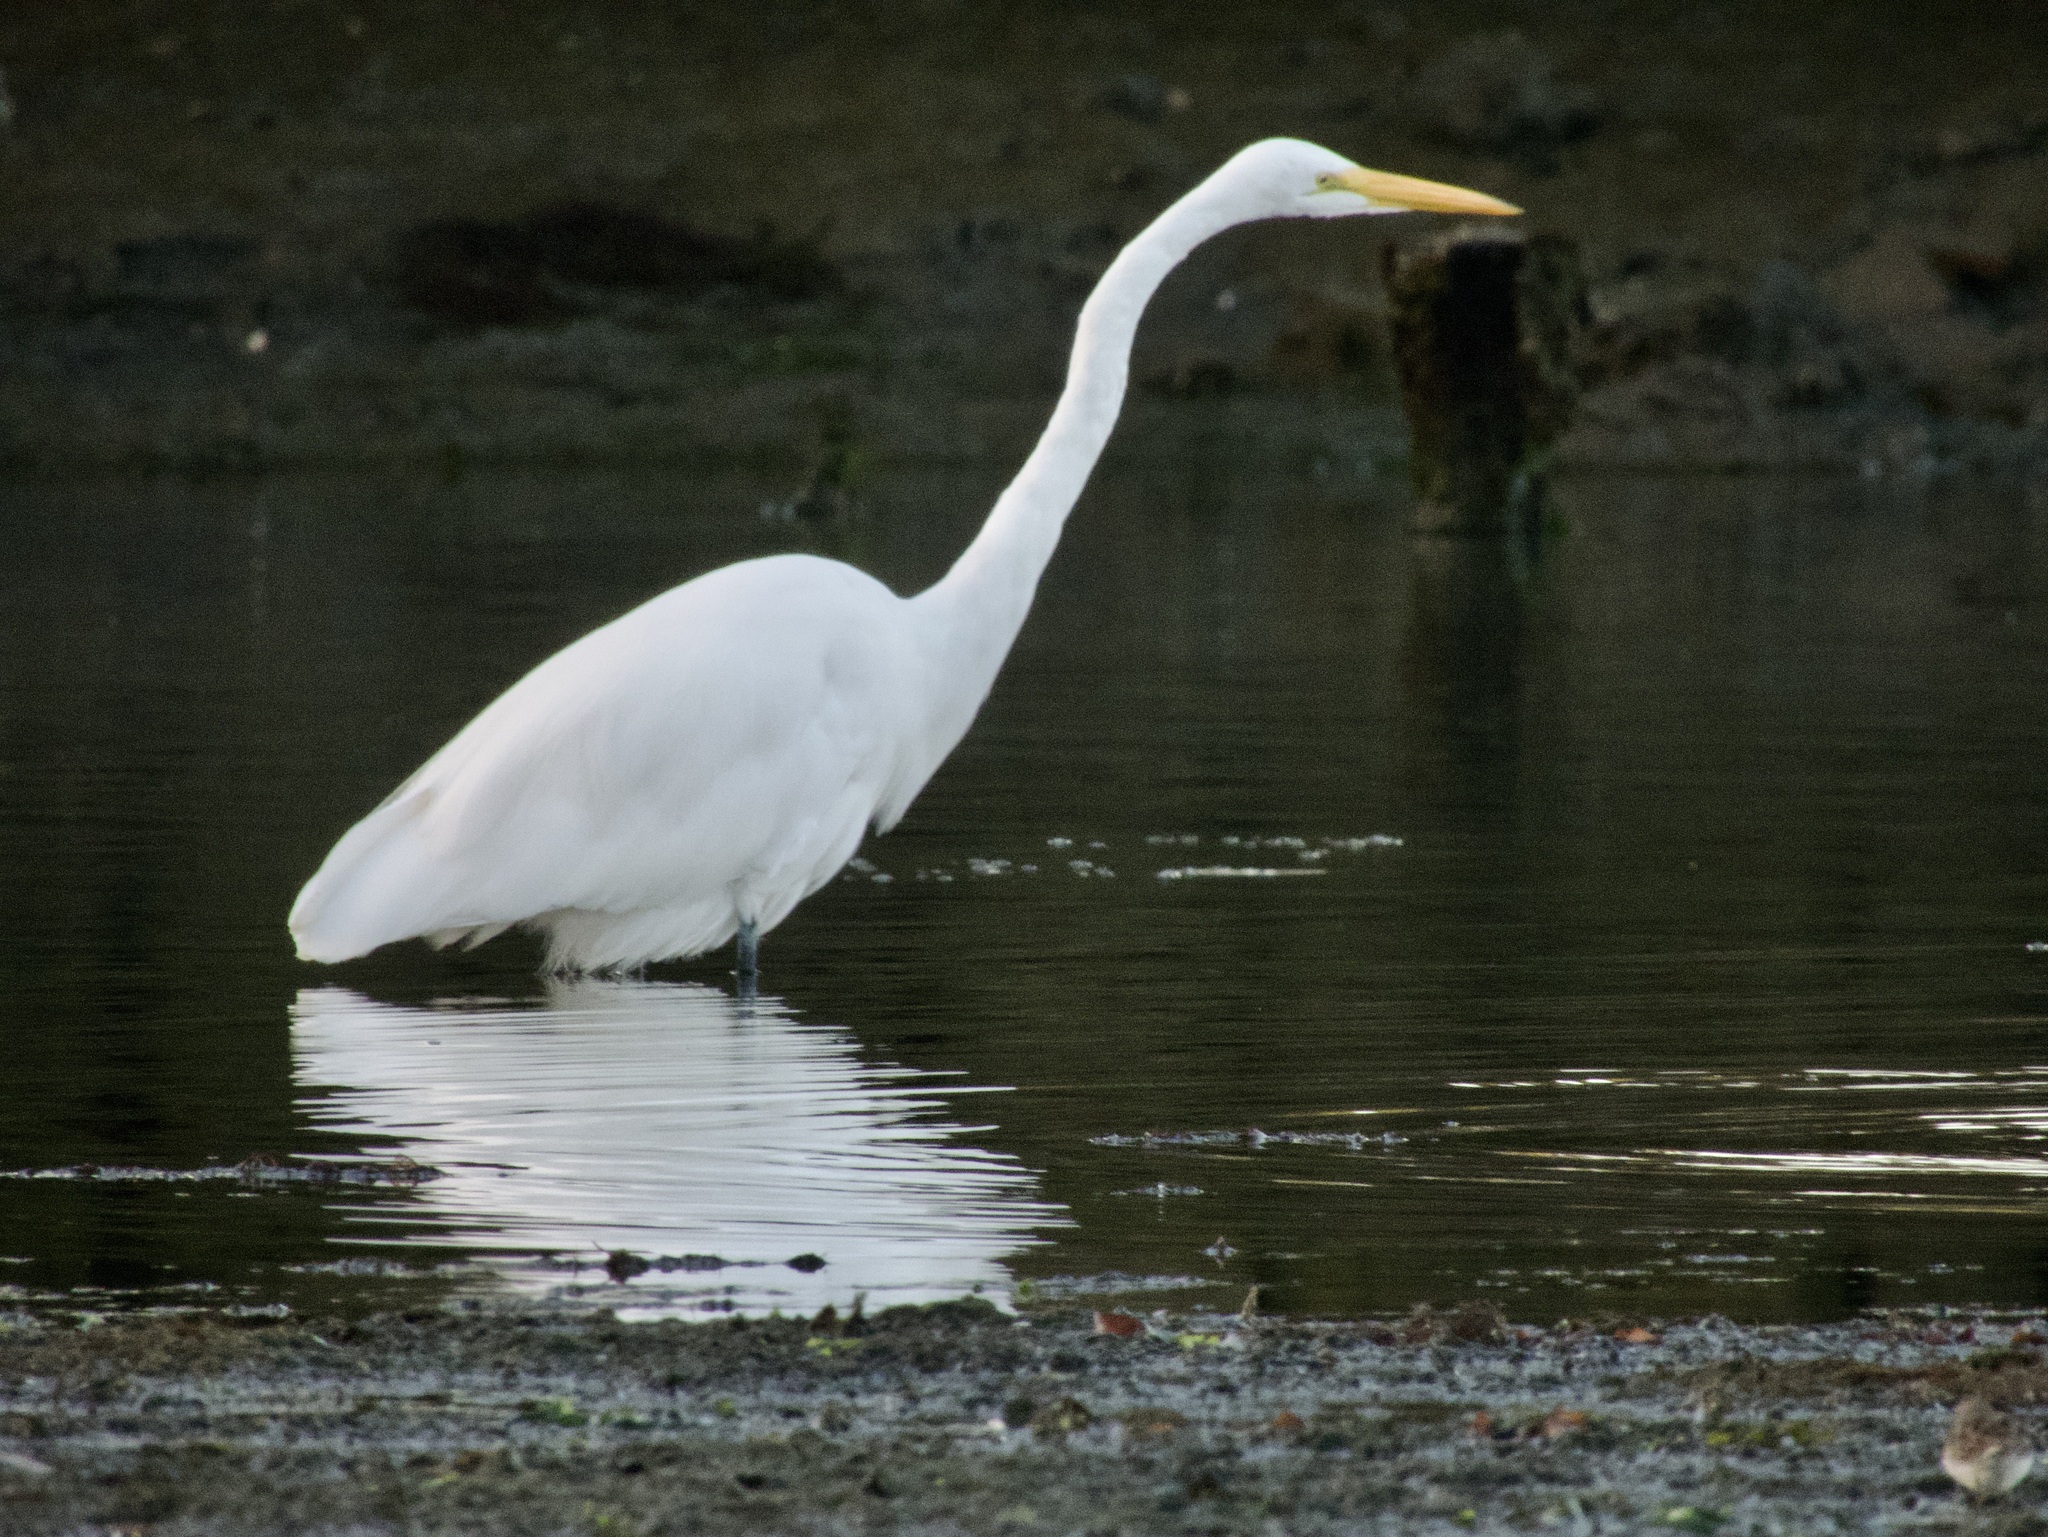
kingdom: Animalia
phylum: Chordata
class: Aves
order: Pelecaniformes
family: Ardeidae
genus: Ardea
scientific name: Ardea alba
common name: Great egret
